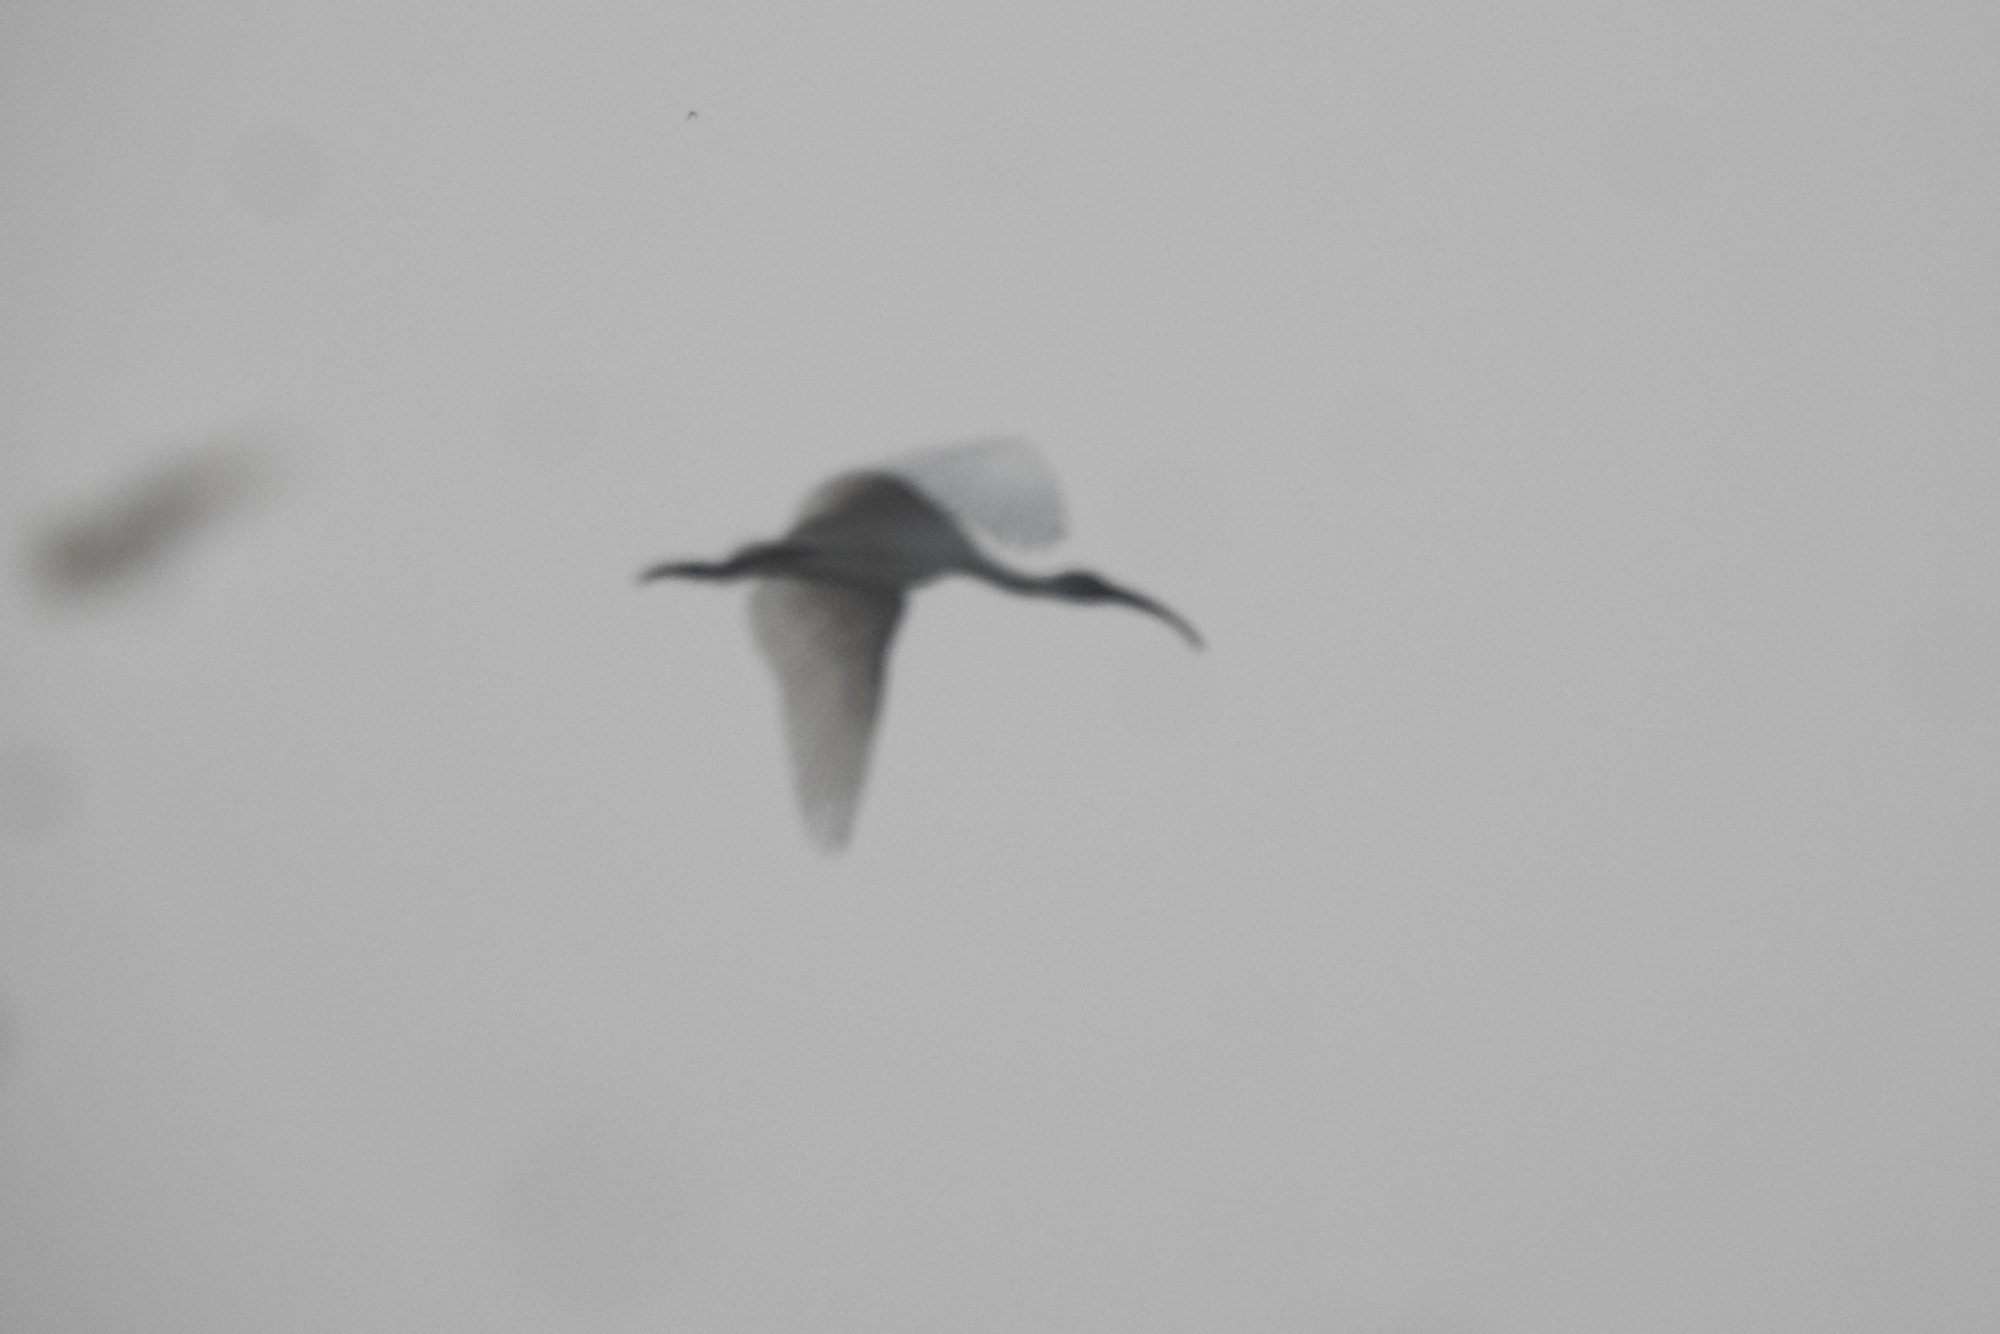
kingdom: Animalia
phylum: Chordata
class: Aves
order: Pelecaniformes
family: Threskiornithidae
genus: Threskiornis
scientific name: Threskiornis melanocephalus
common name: Black-headed ibis
